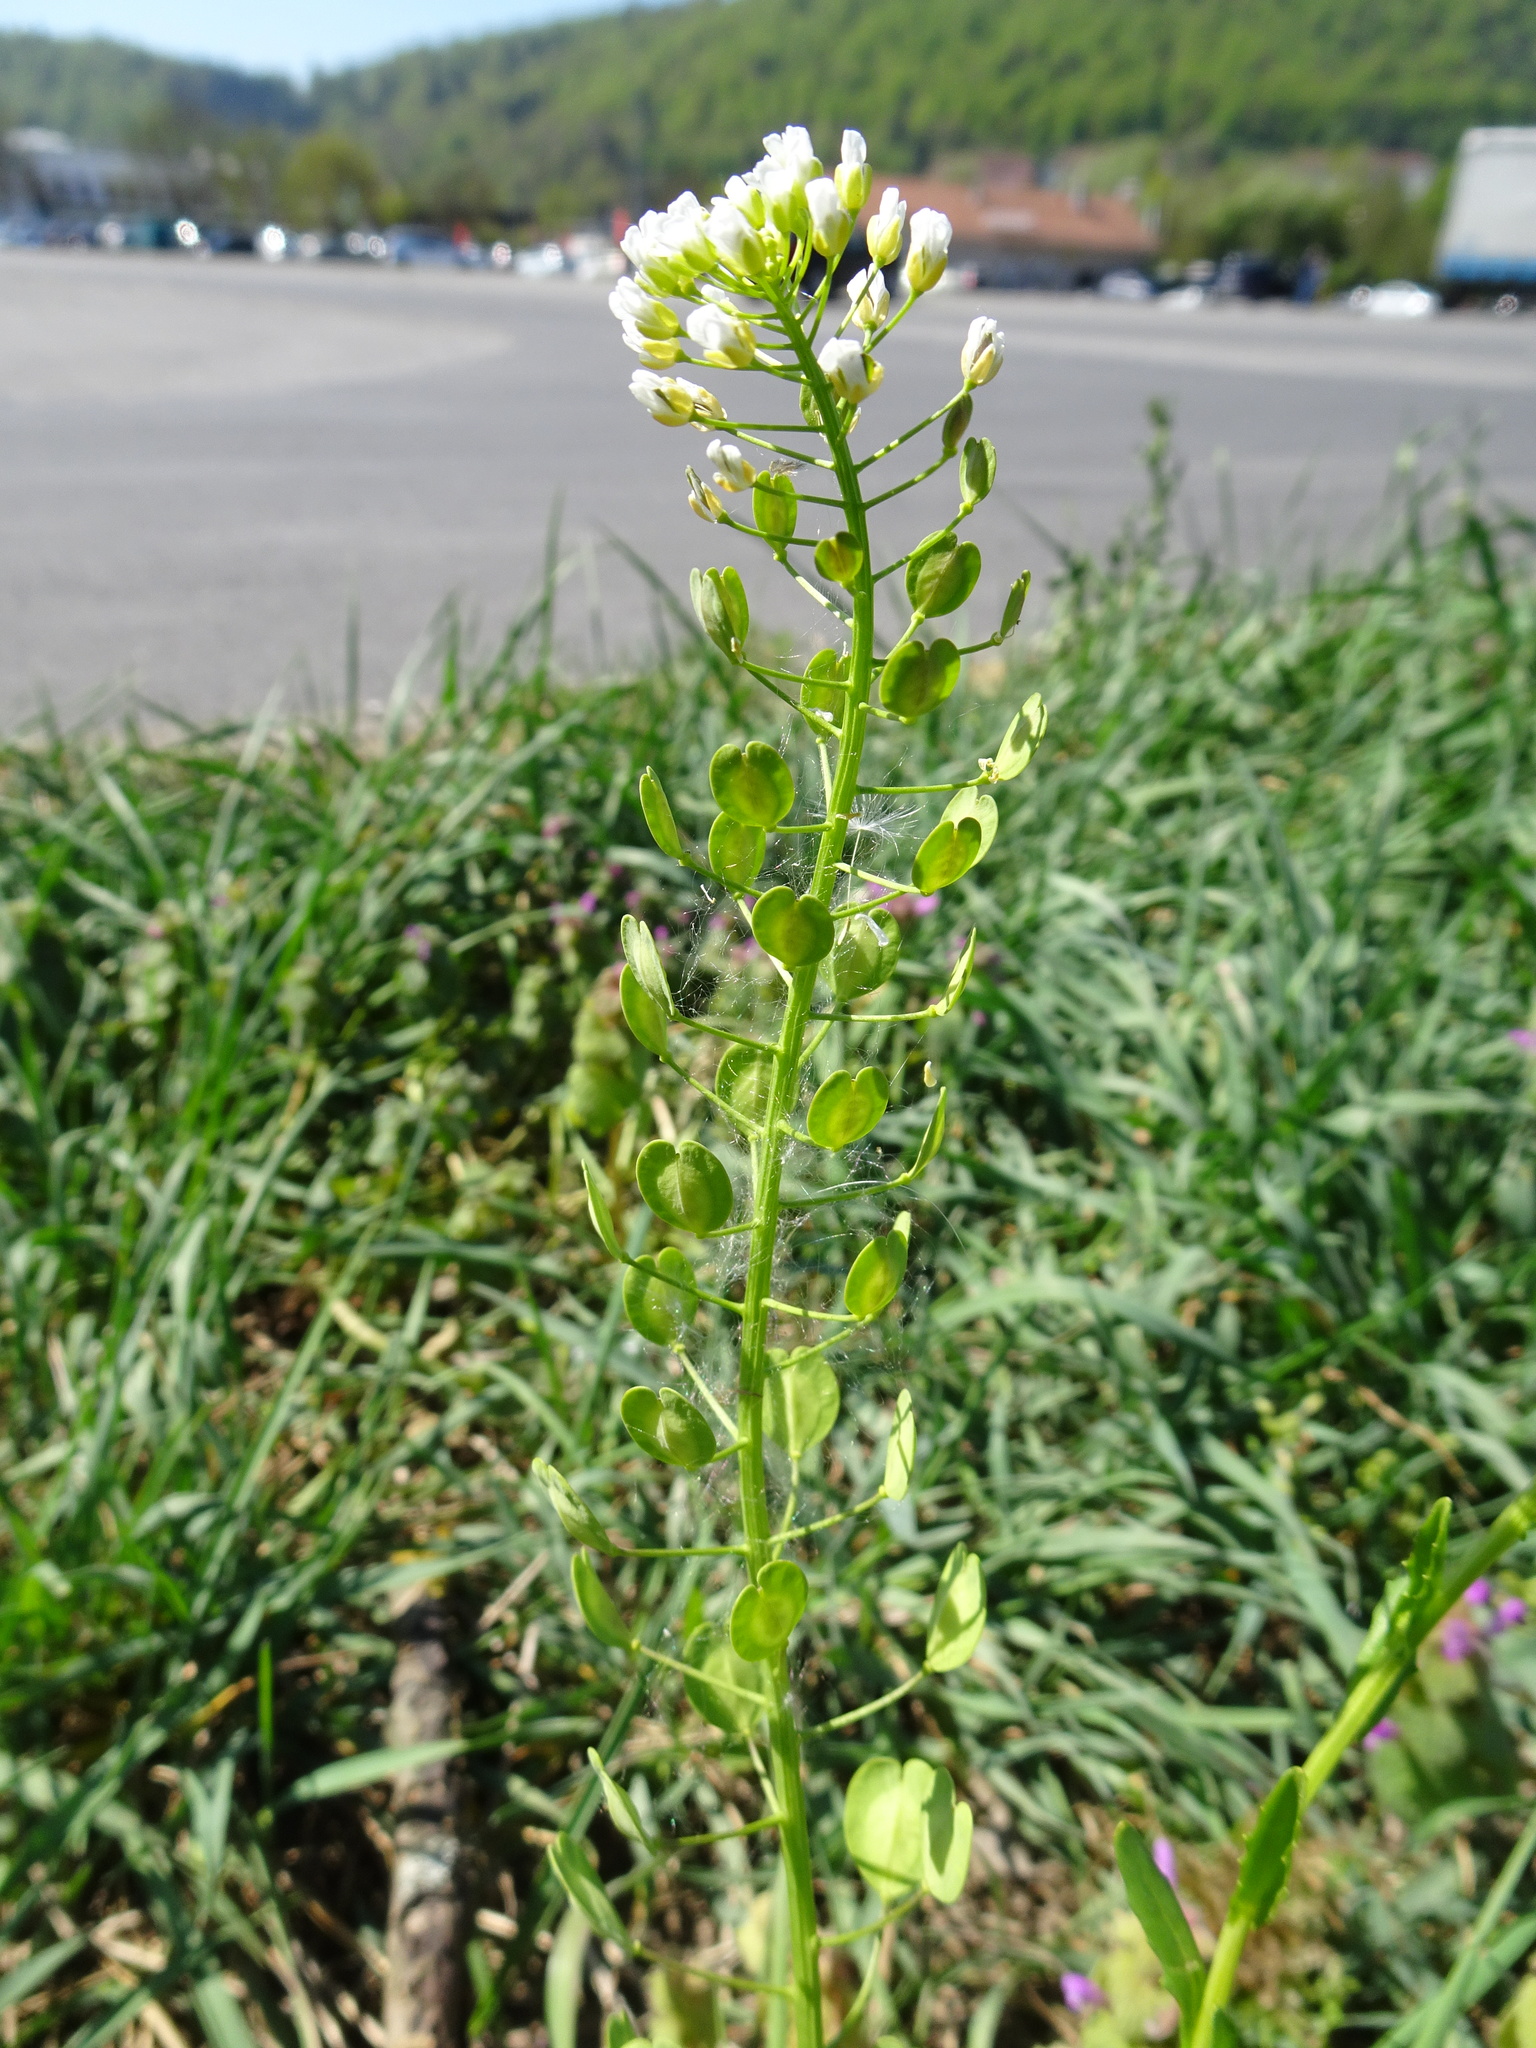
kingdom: Plantae
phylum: Tracheophyta
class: Magnoliopsida
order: Brassicales
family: Brassicaceae
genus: Thlaspi
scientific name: Thlaspi arvense
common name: Field pennycress
